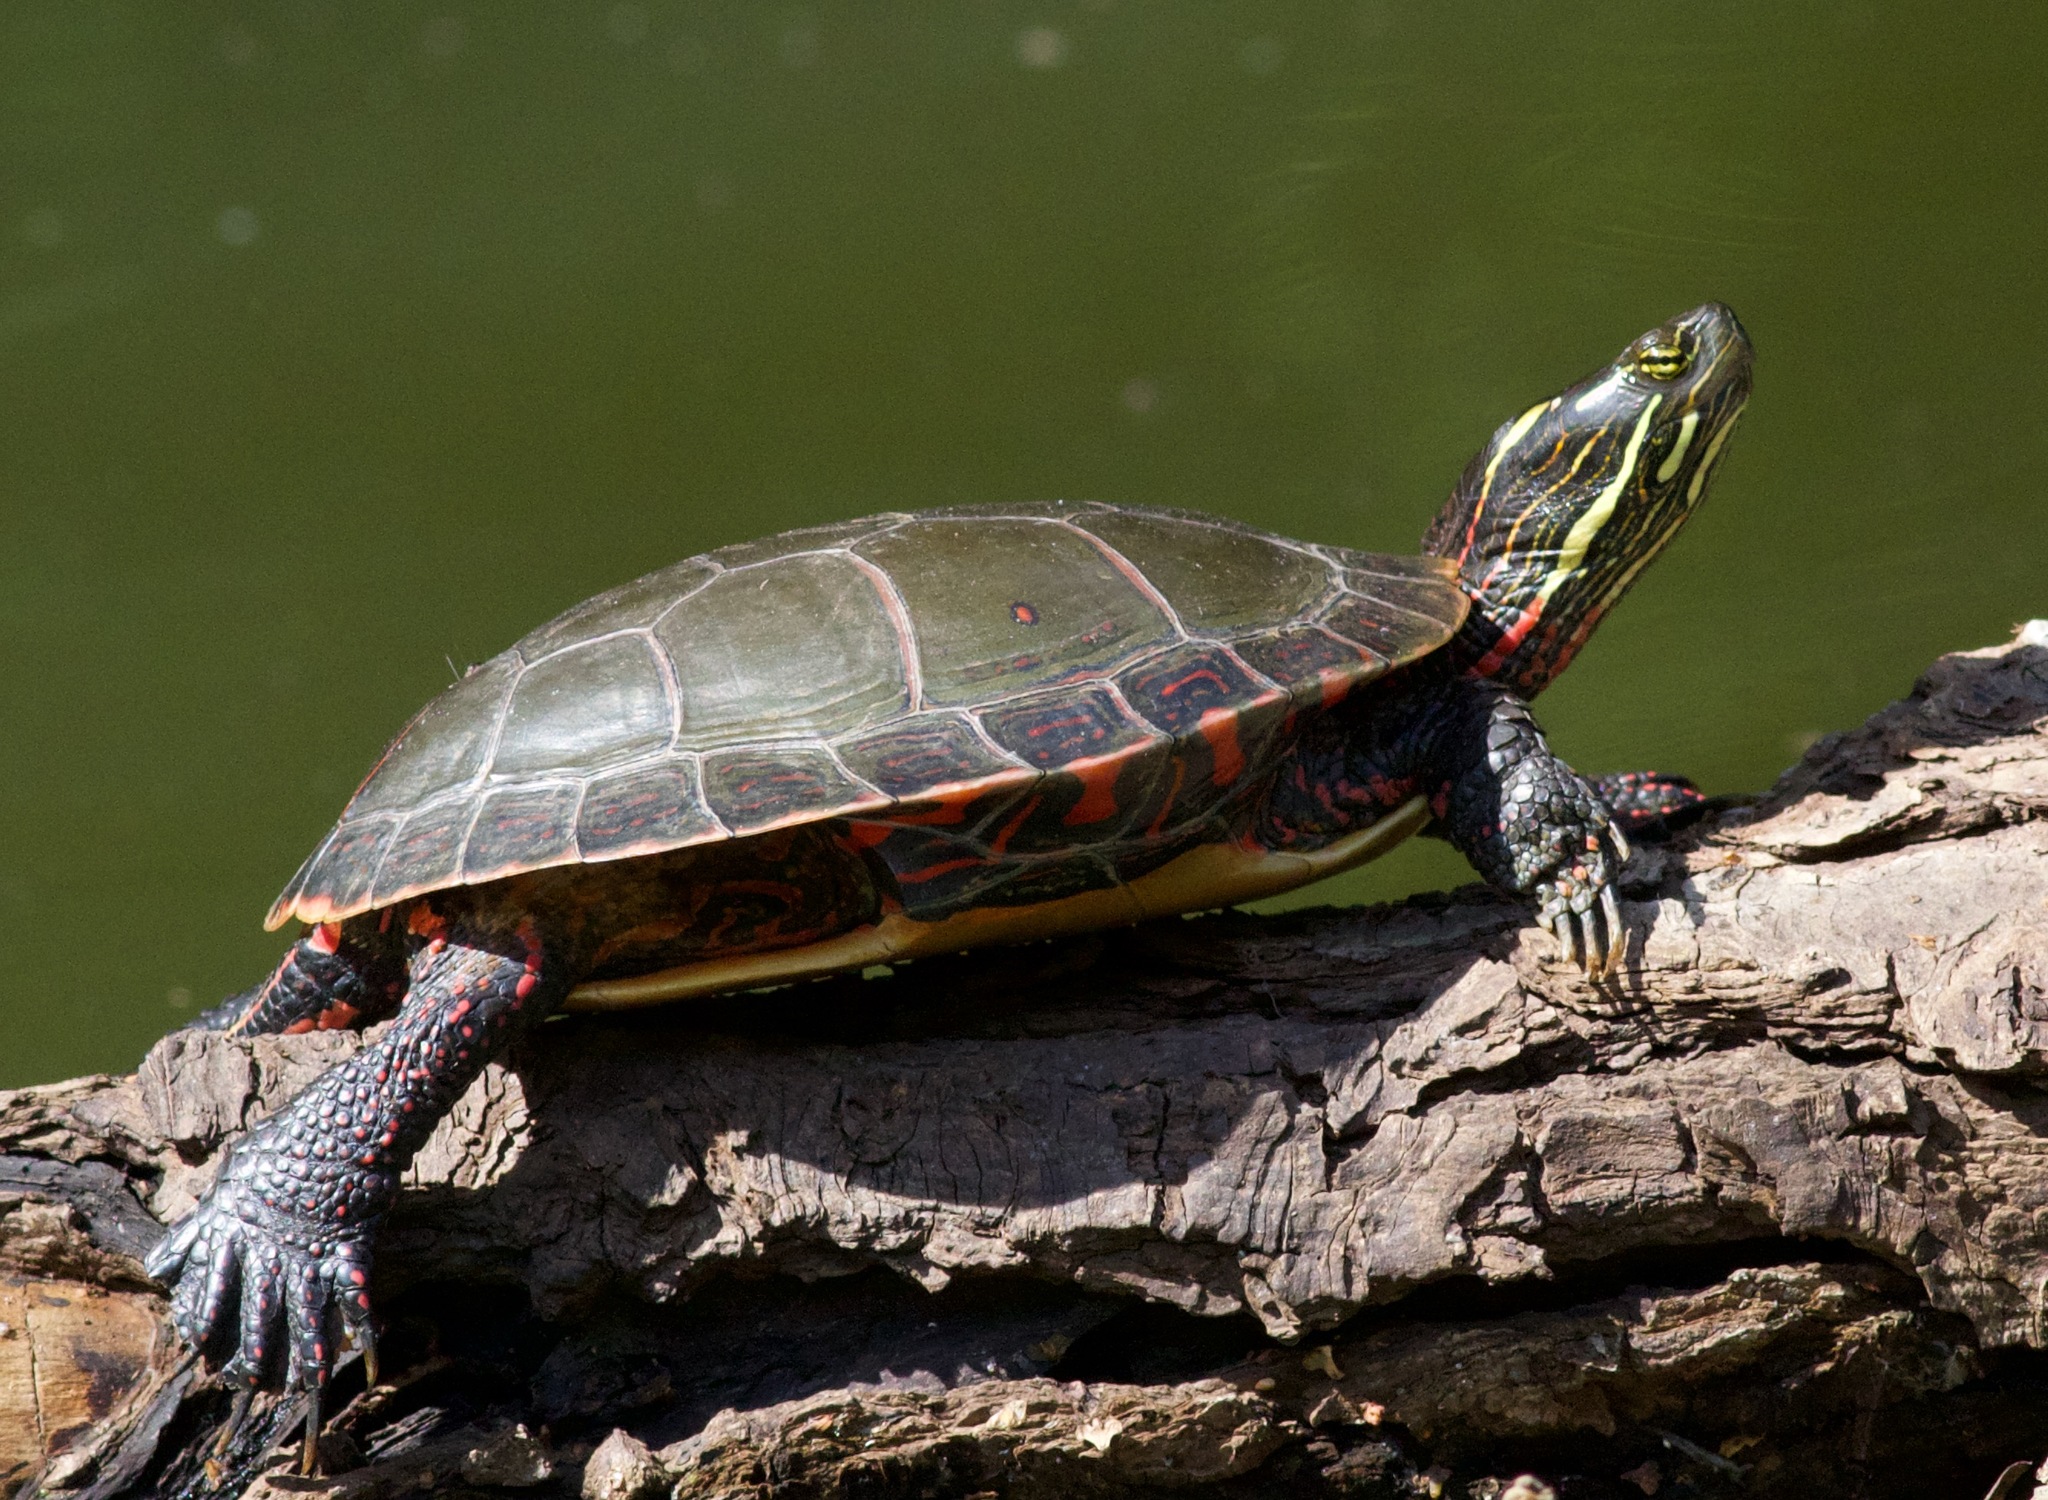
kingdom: Animalia
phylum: Chordata
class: Testudines
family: Emydidae
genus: Chrysemys
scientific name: Chrysemys picta
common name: Painted turtle
